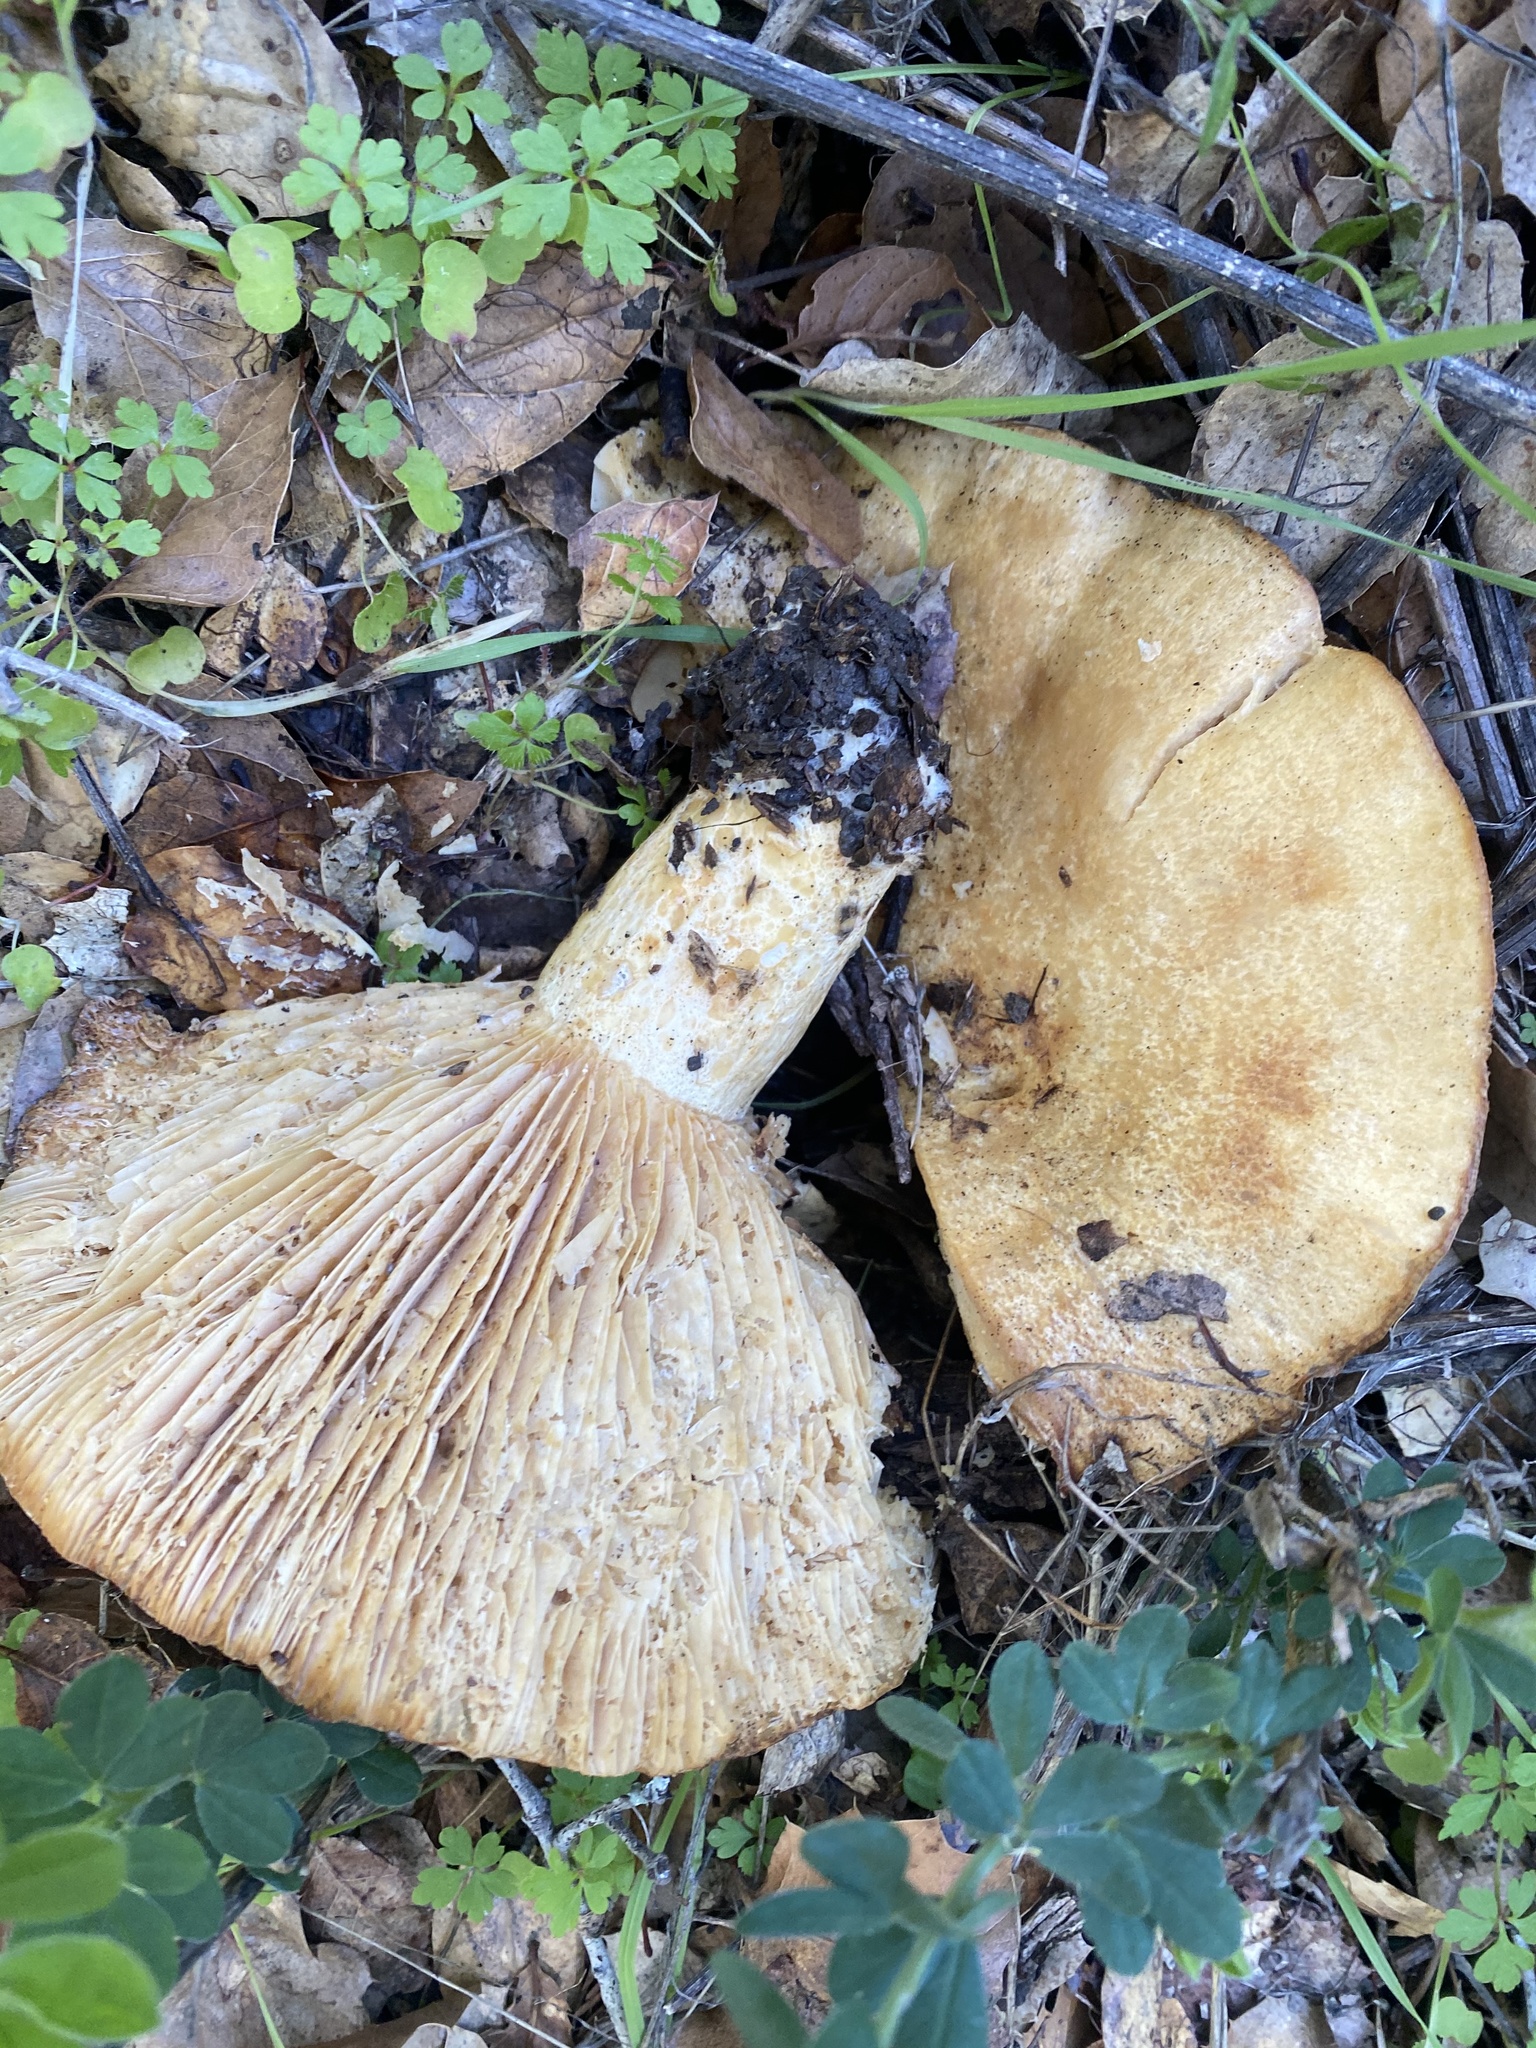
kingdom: Fungi
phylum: Basidiomycota
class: Agaricomycetes
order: Russulales
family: Russulaceae
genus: Lactarius
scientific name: Lactarius alnicola
